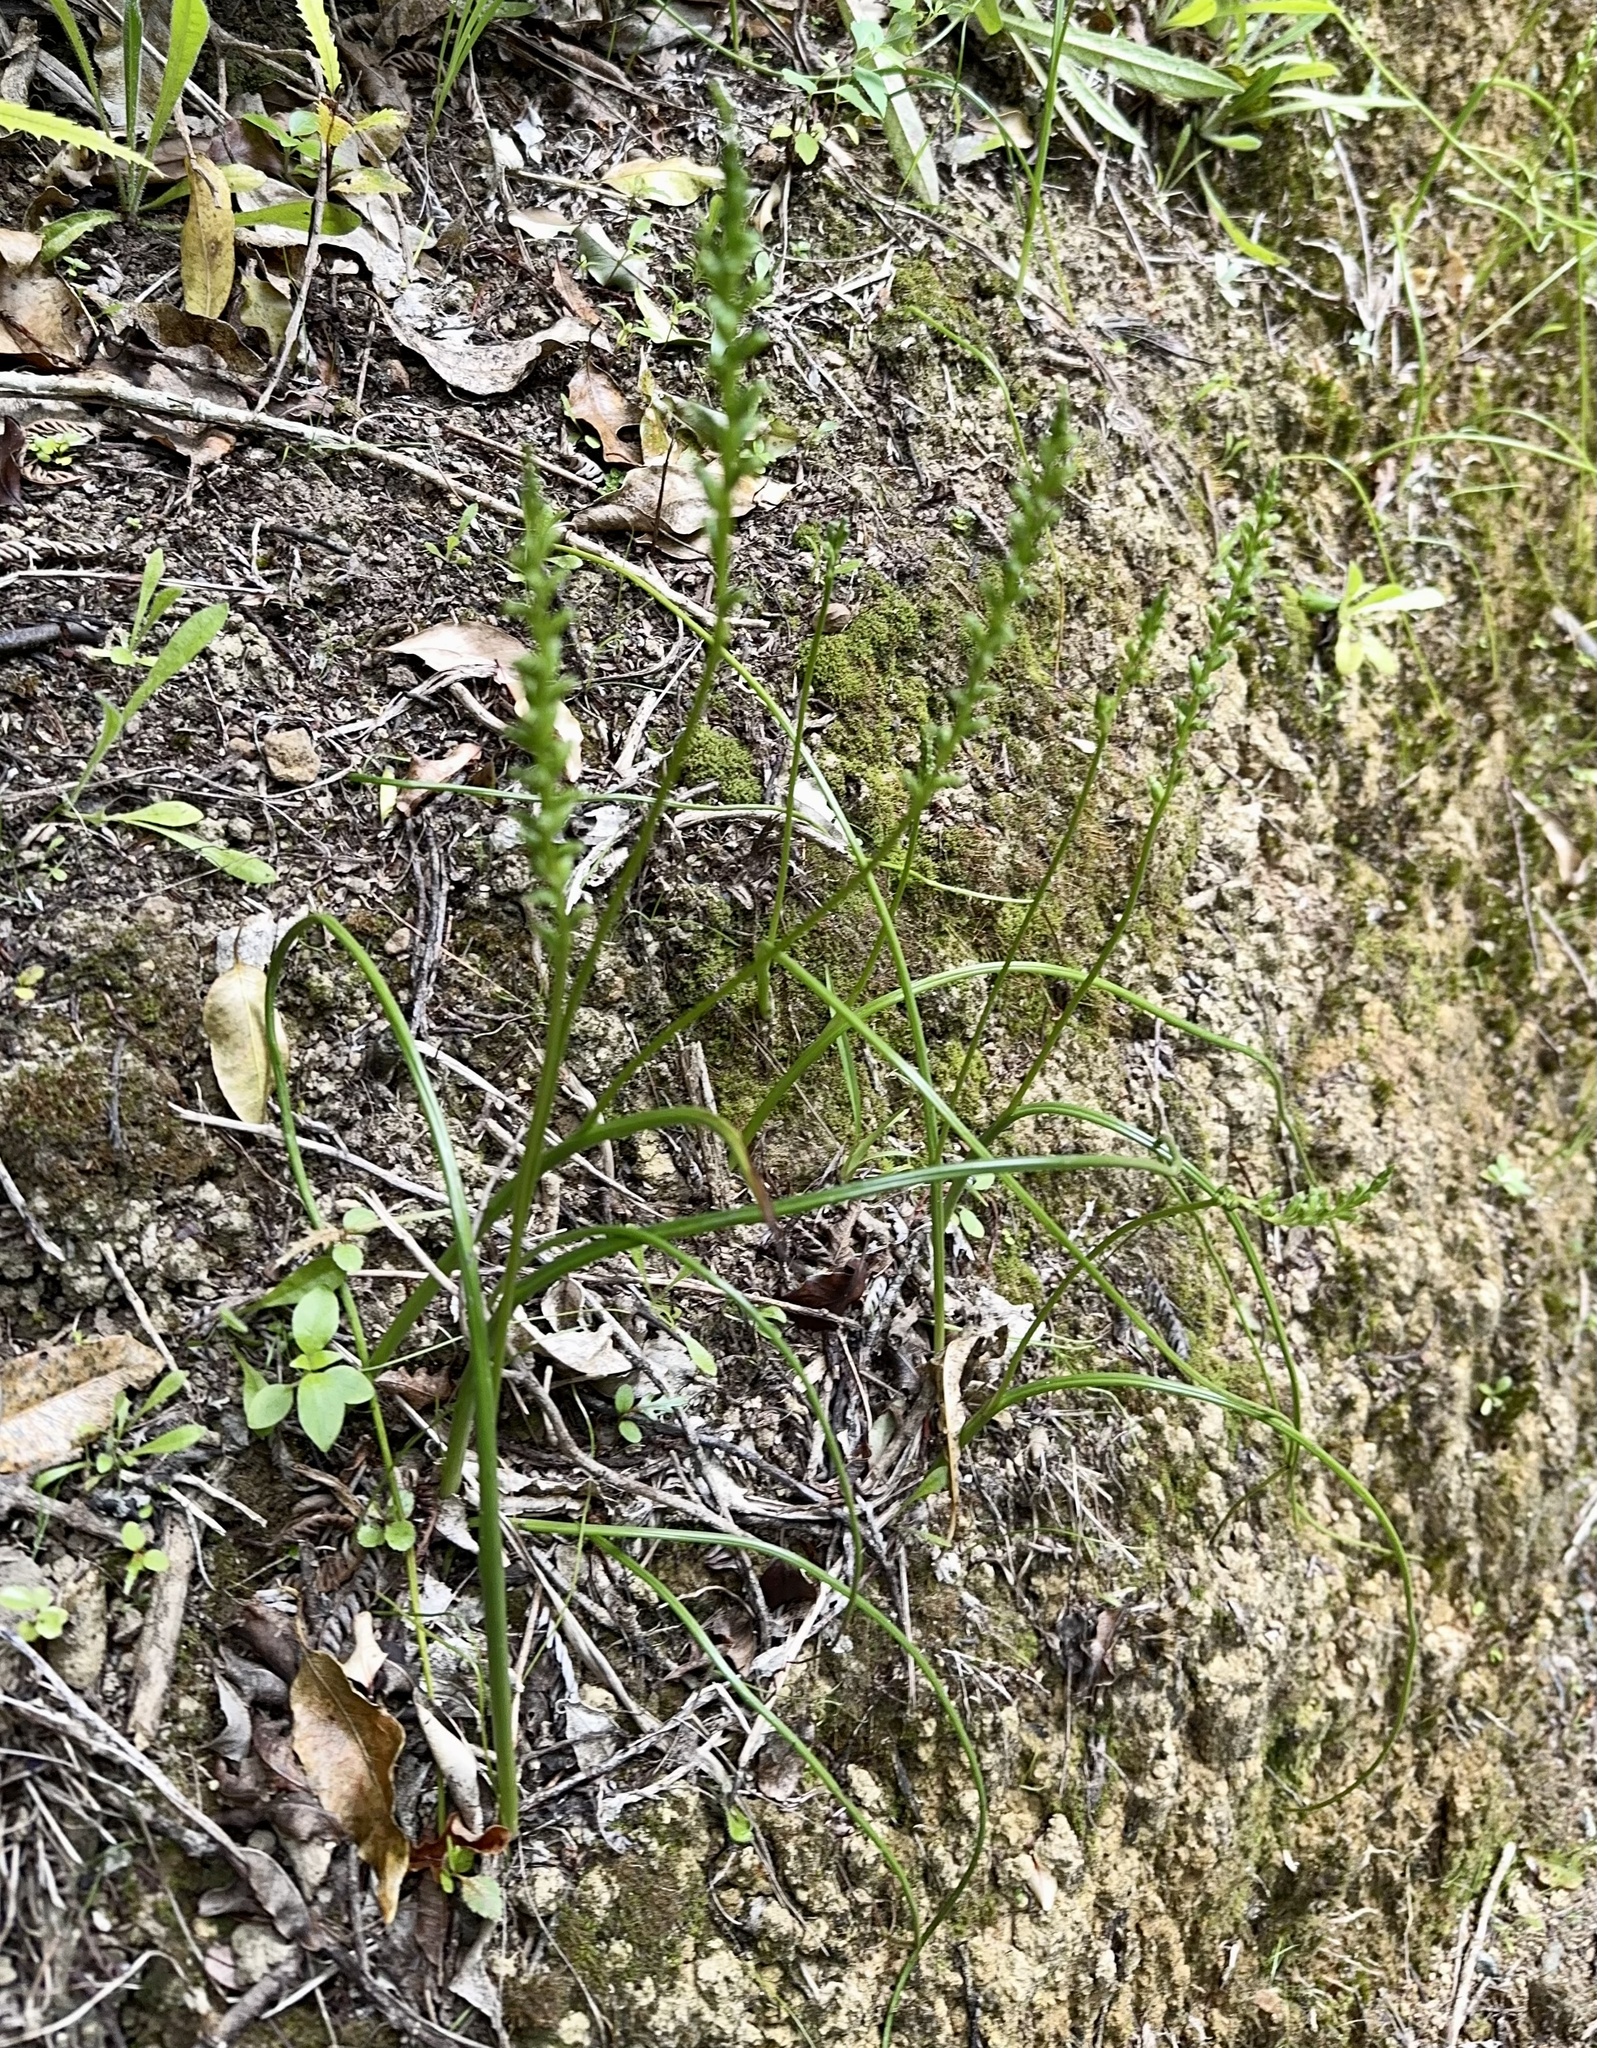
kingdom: Plantae
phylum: Tracheophyta
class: Liliopsida
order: Asparagales
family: Orchidaceae
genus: Microtis
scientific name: Microtis unifolia
